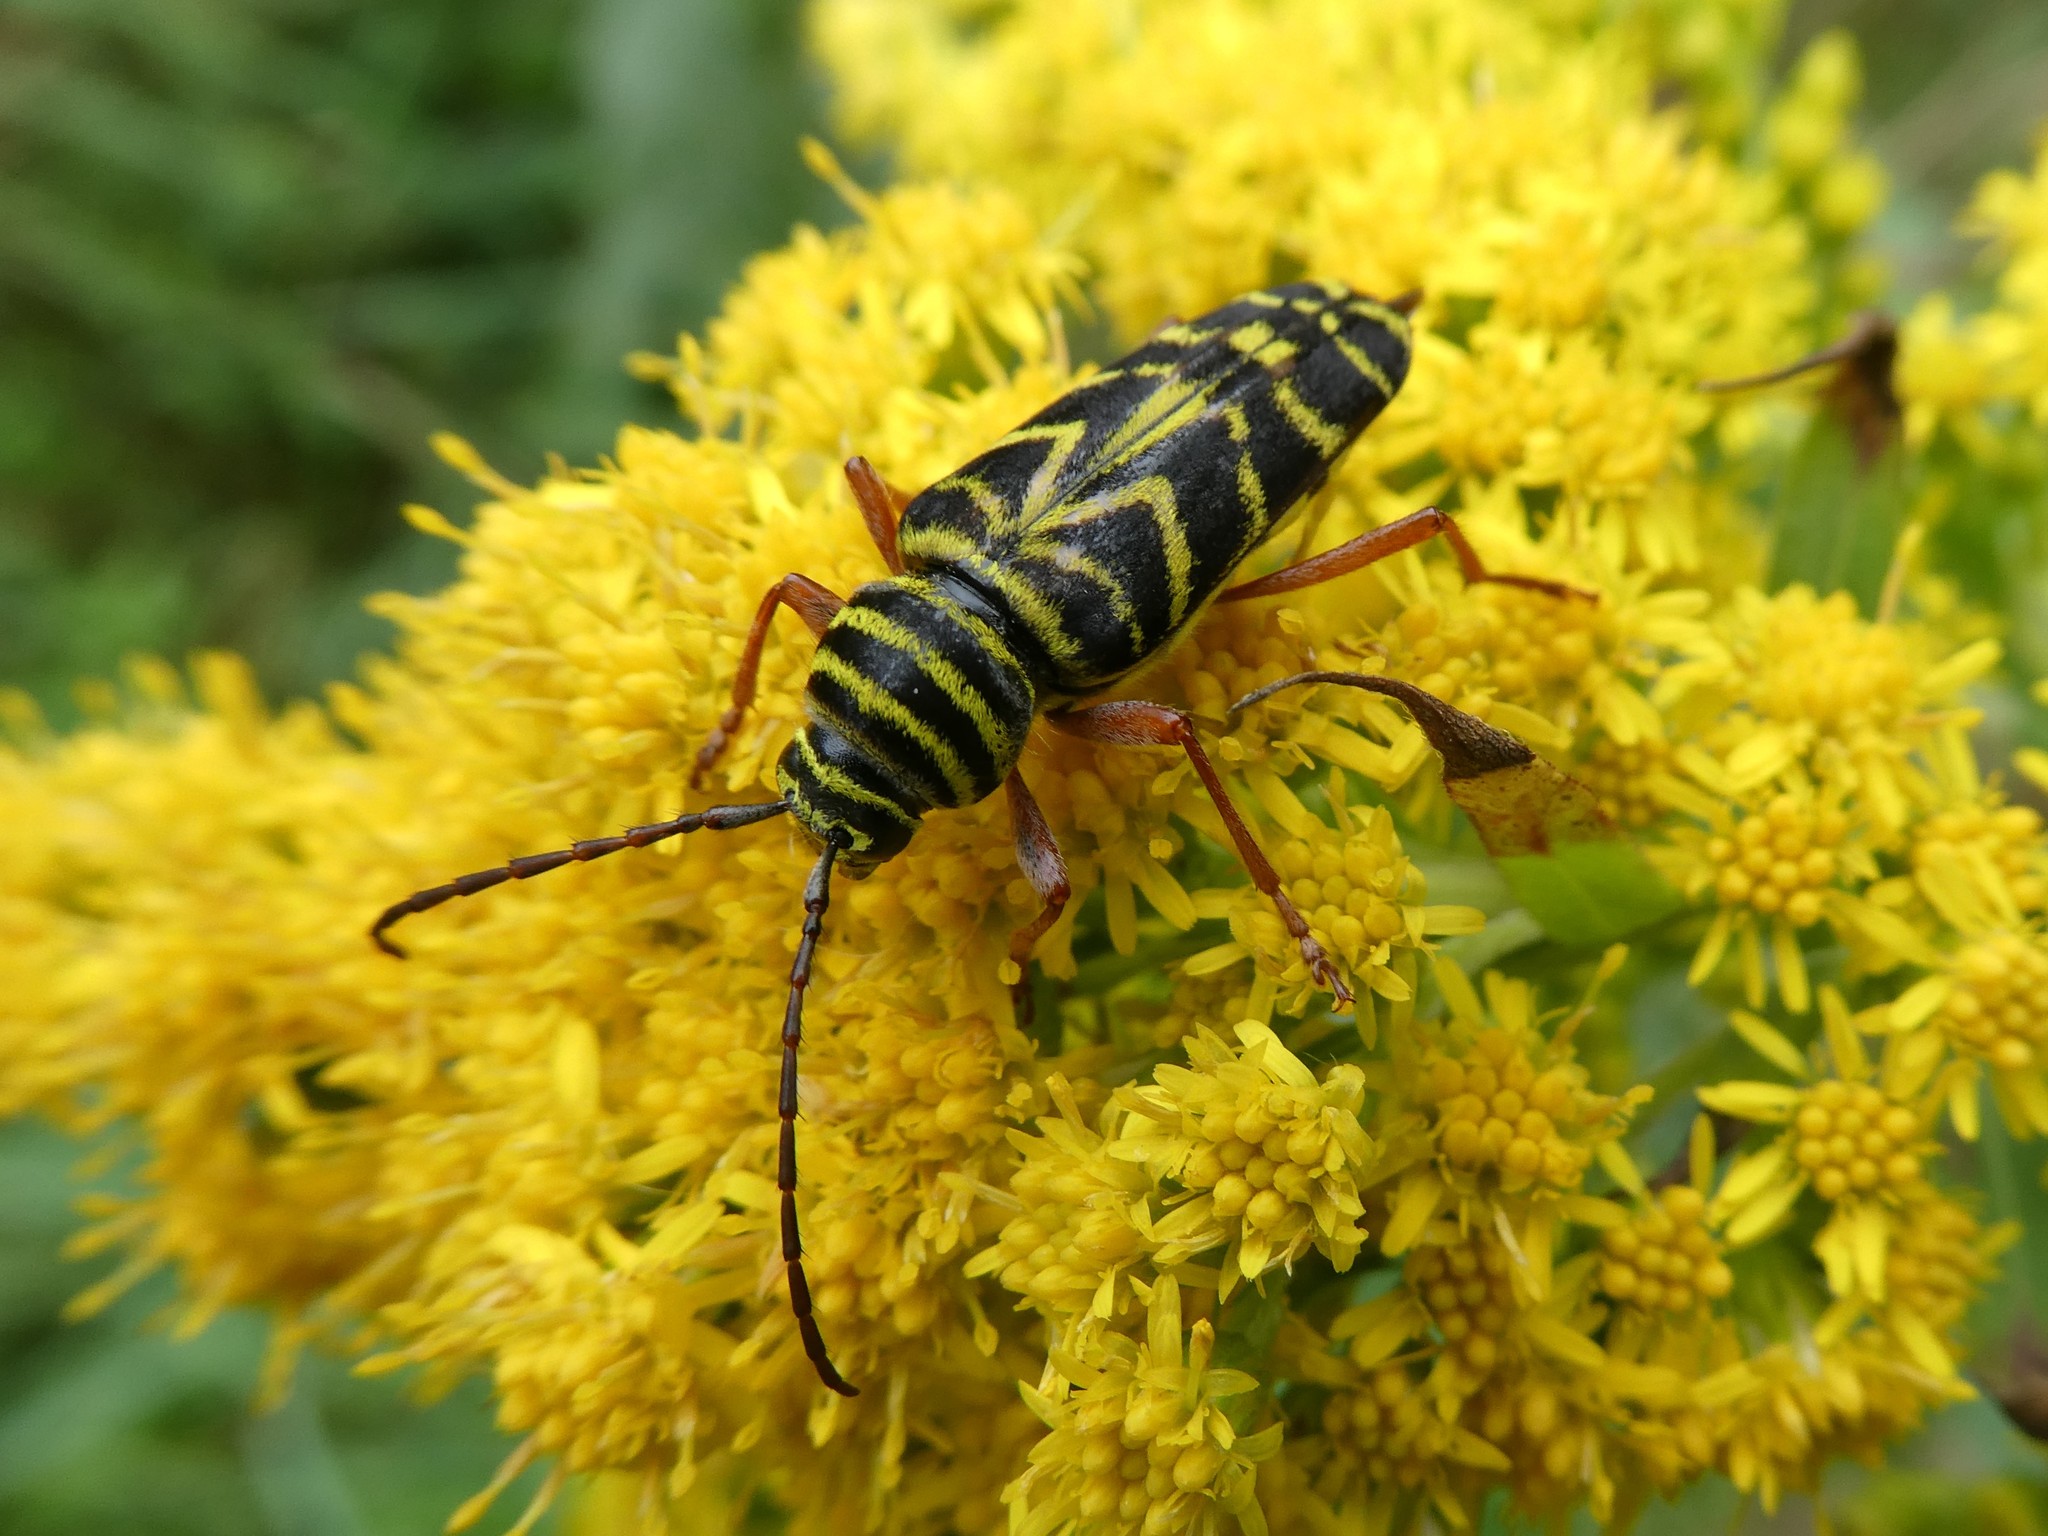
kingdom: Animalia
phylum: Arthropoda
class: Insecta
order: Coleoptera
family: Cerambycidae
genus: Megacyllene
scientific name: Megacyllene robiniae
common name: Locust borer
